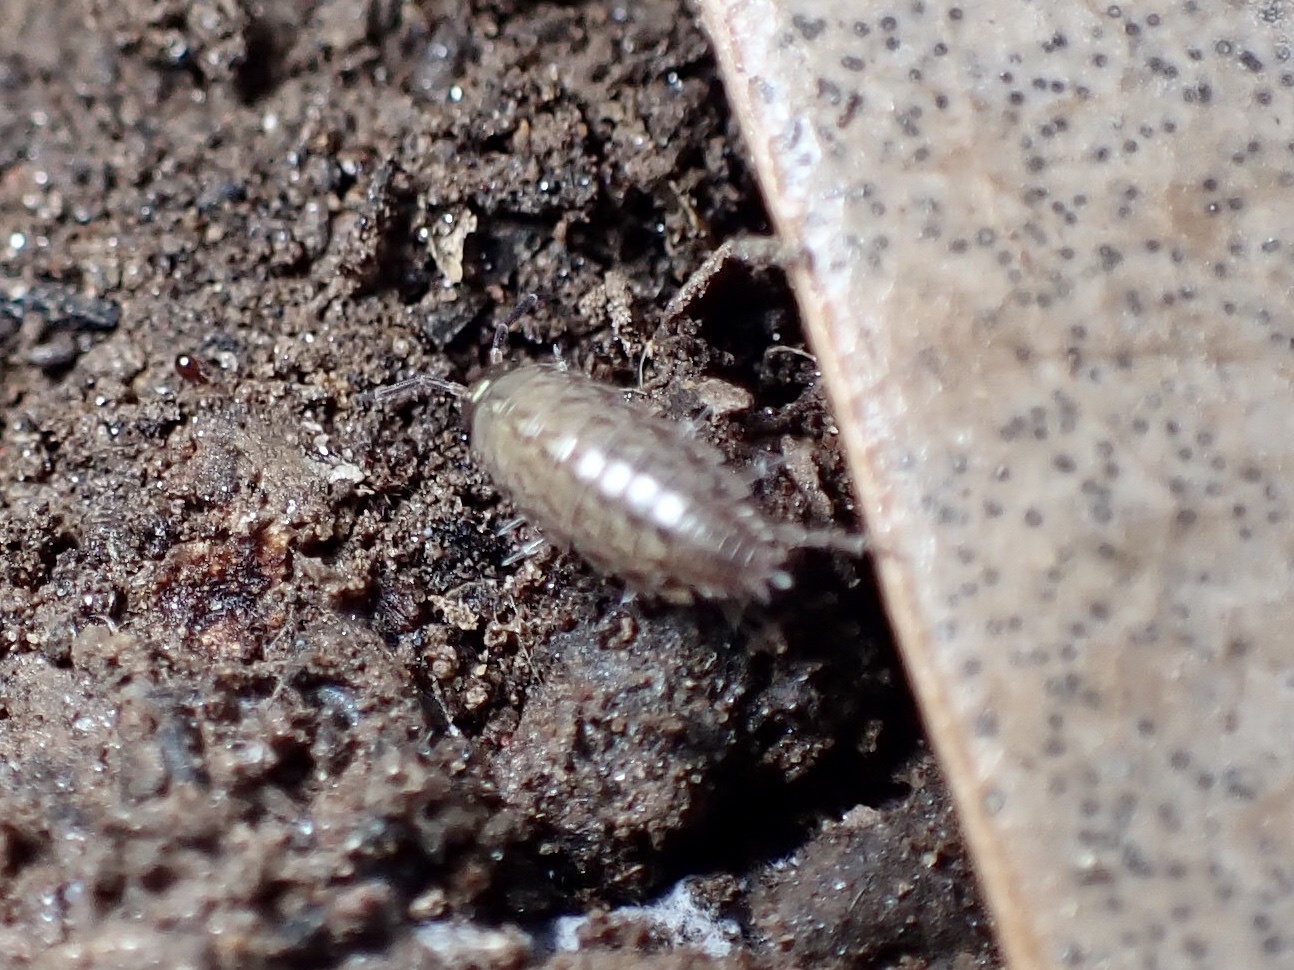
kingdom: Animalia
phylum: Arthropoda
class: Malacostraca
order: Isopoda
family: Philosciidae
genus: Philoscia
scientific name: Philoscia muscorum
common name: Common striped woodlouse
